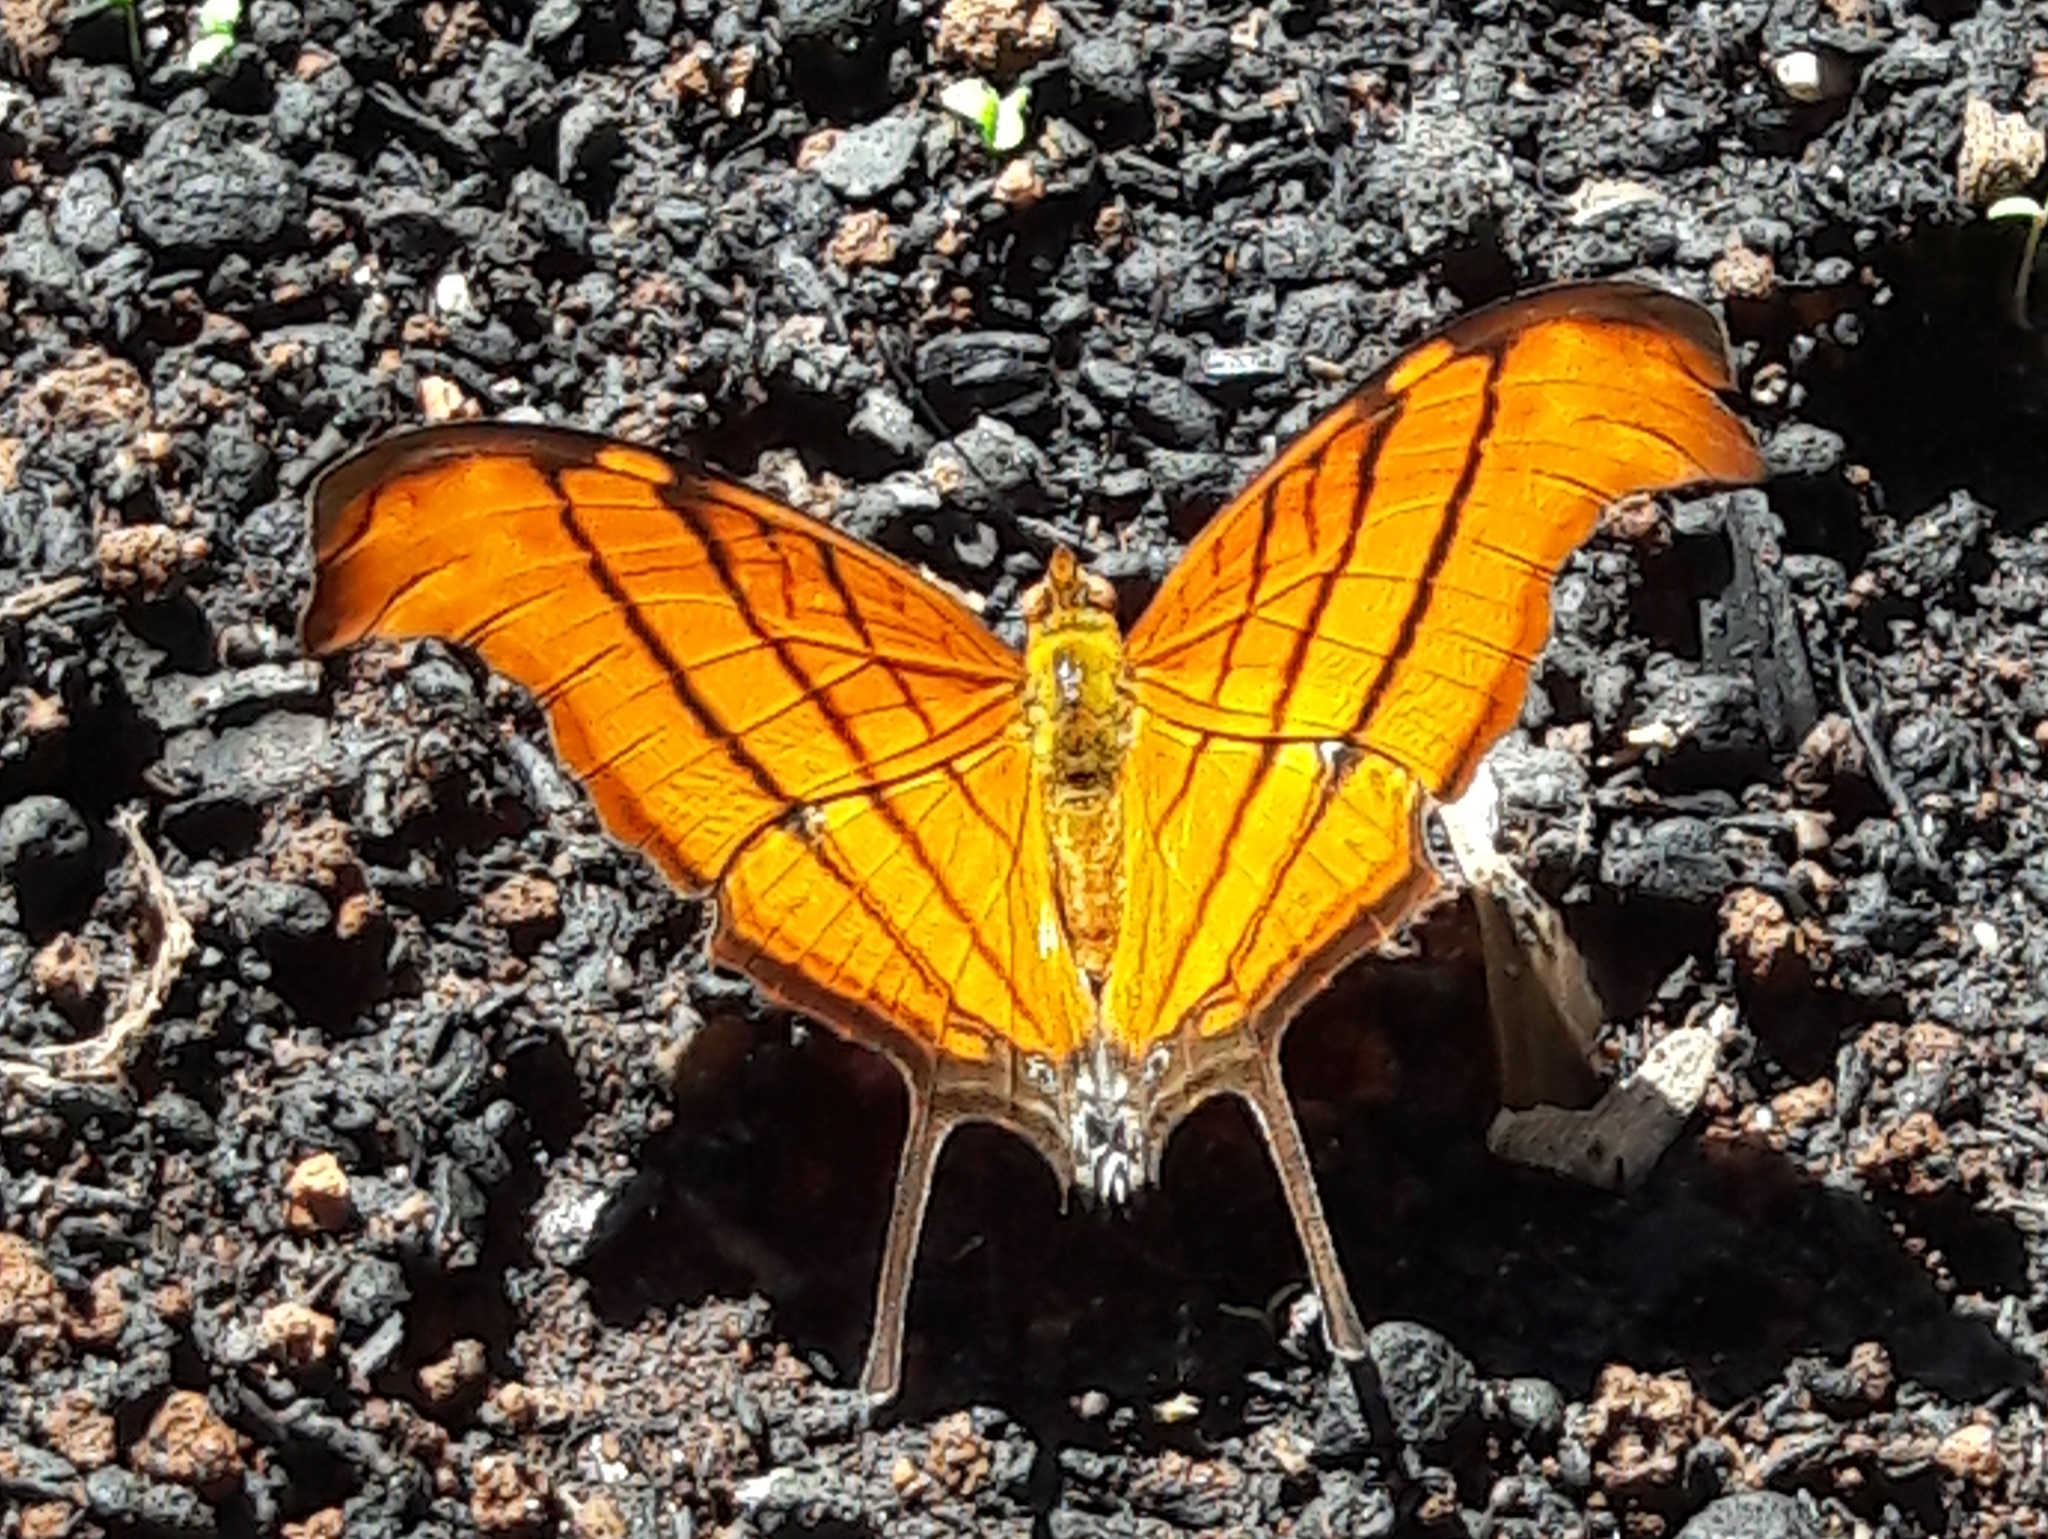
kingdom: Animalia
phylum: Arthropoda
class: Insecta
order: Lepidoptera
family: Nymphalidae
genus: Marpesia
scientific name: Marpesia petreus
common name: Red dagger wing
